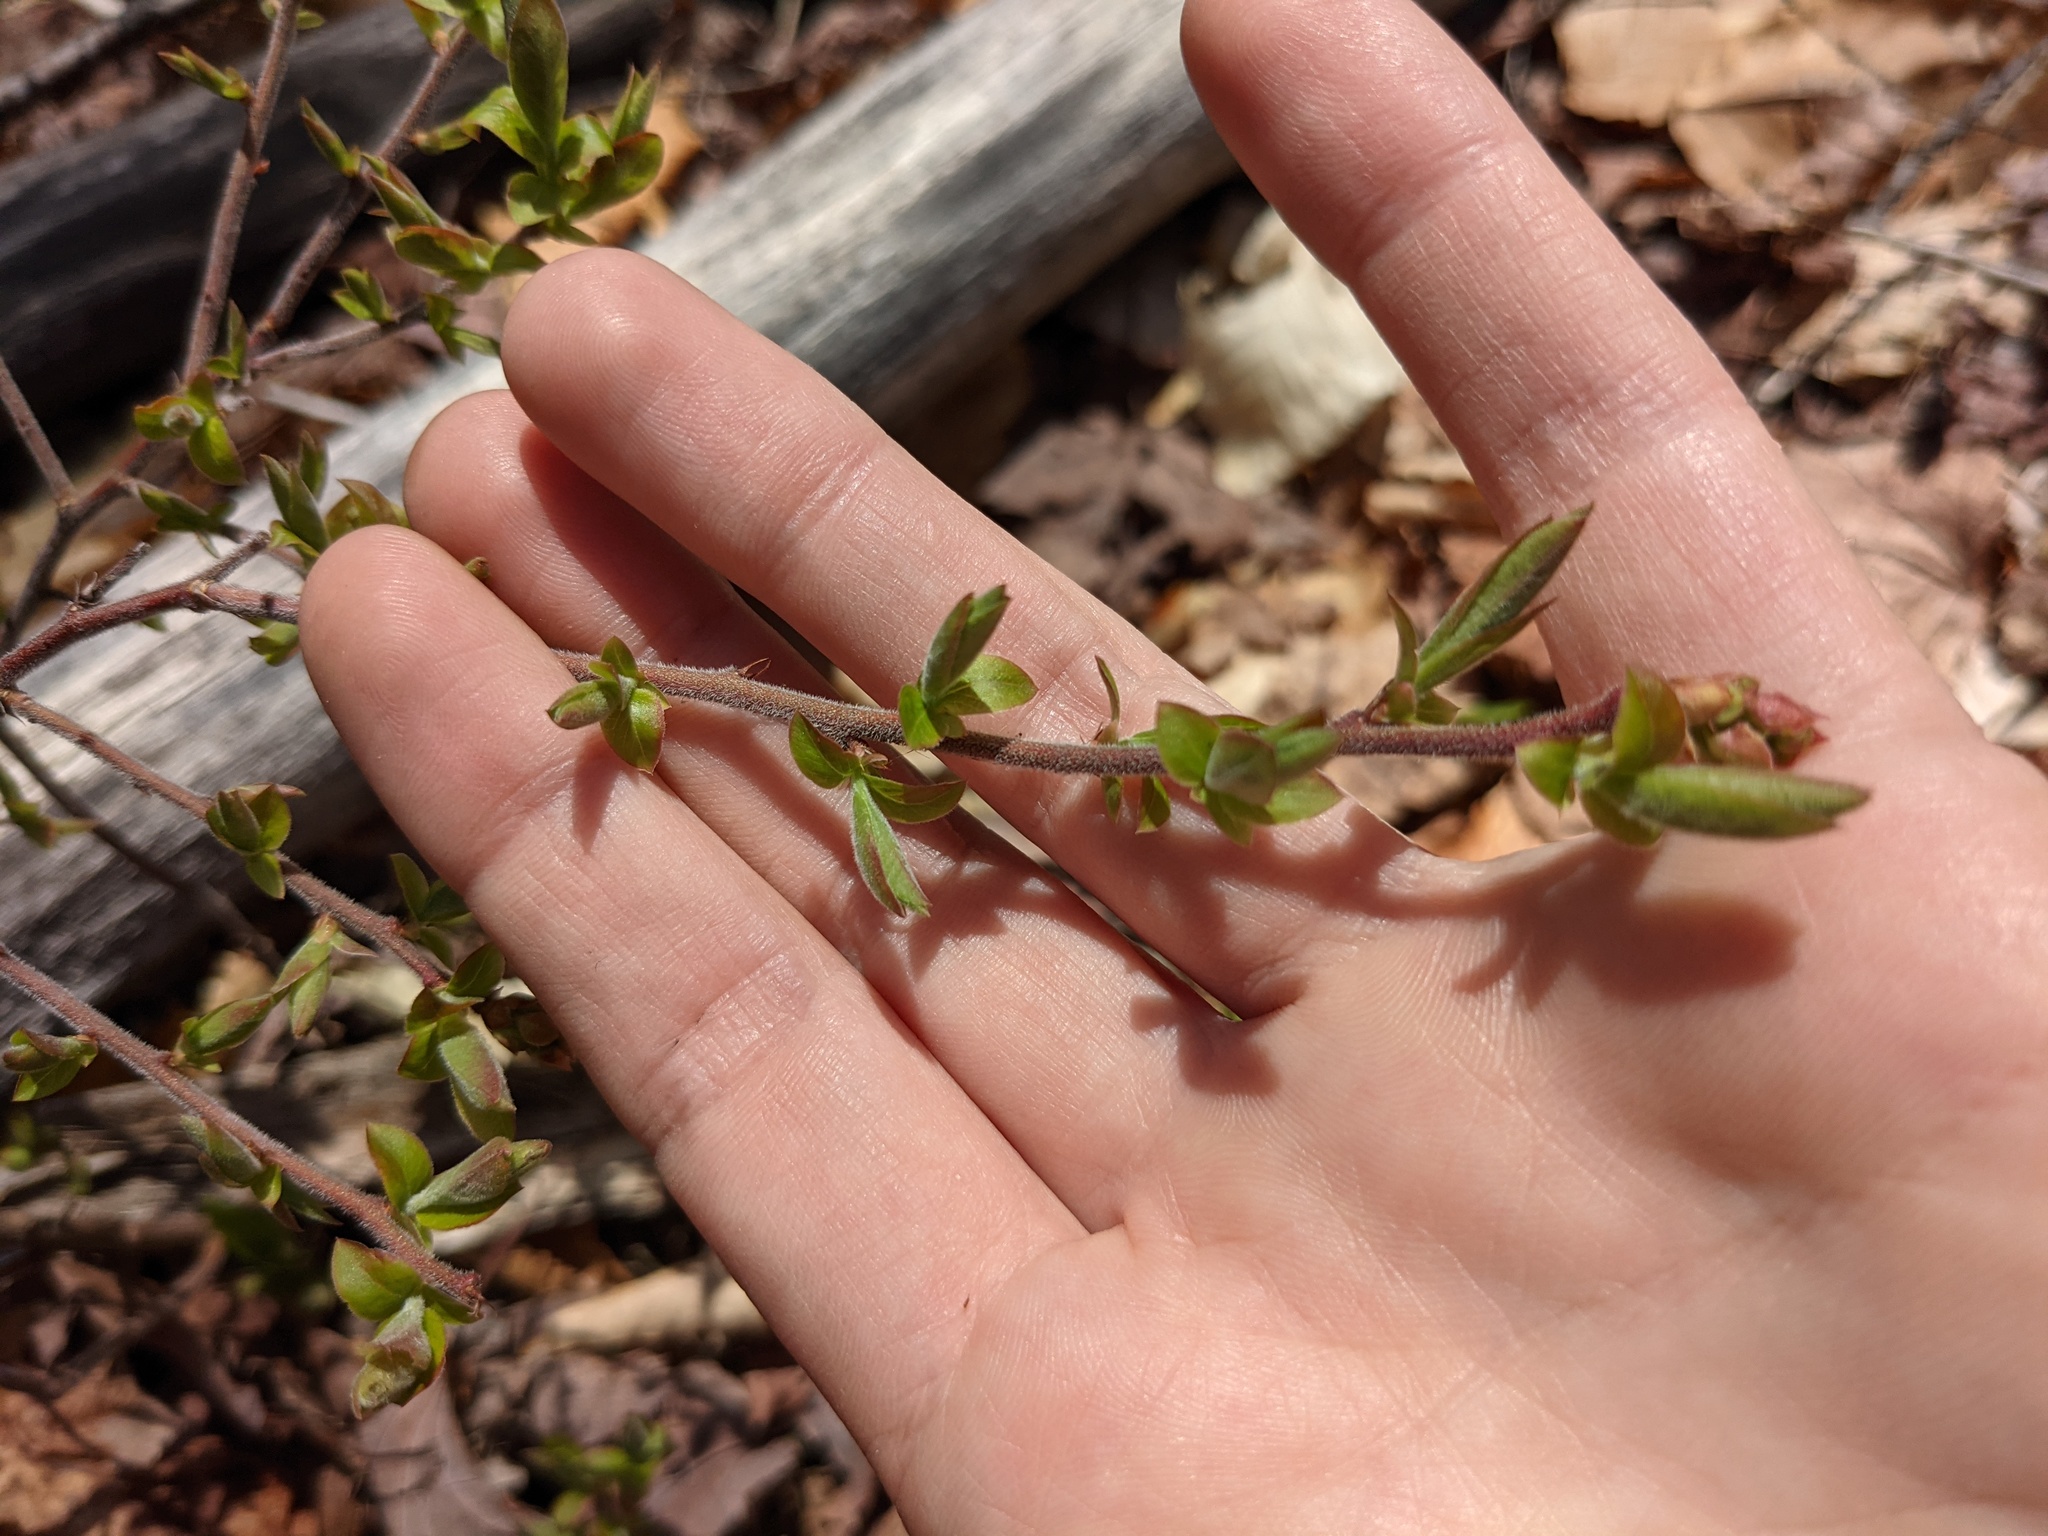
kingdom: Plantae
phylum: Tracheophyta
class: Magnoliopsida
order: Ericales
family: Ericaceae
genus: Vaccinium
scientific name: Vaccinium myrtilloides
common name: Canada blueberry
